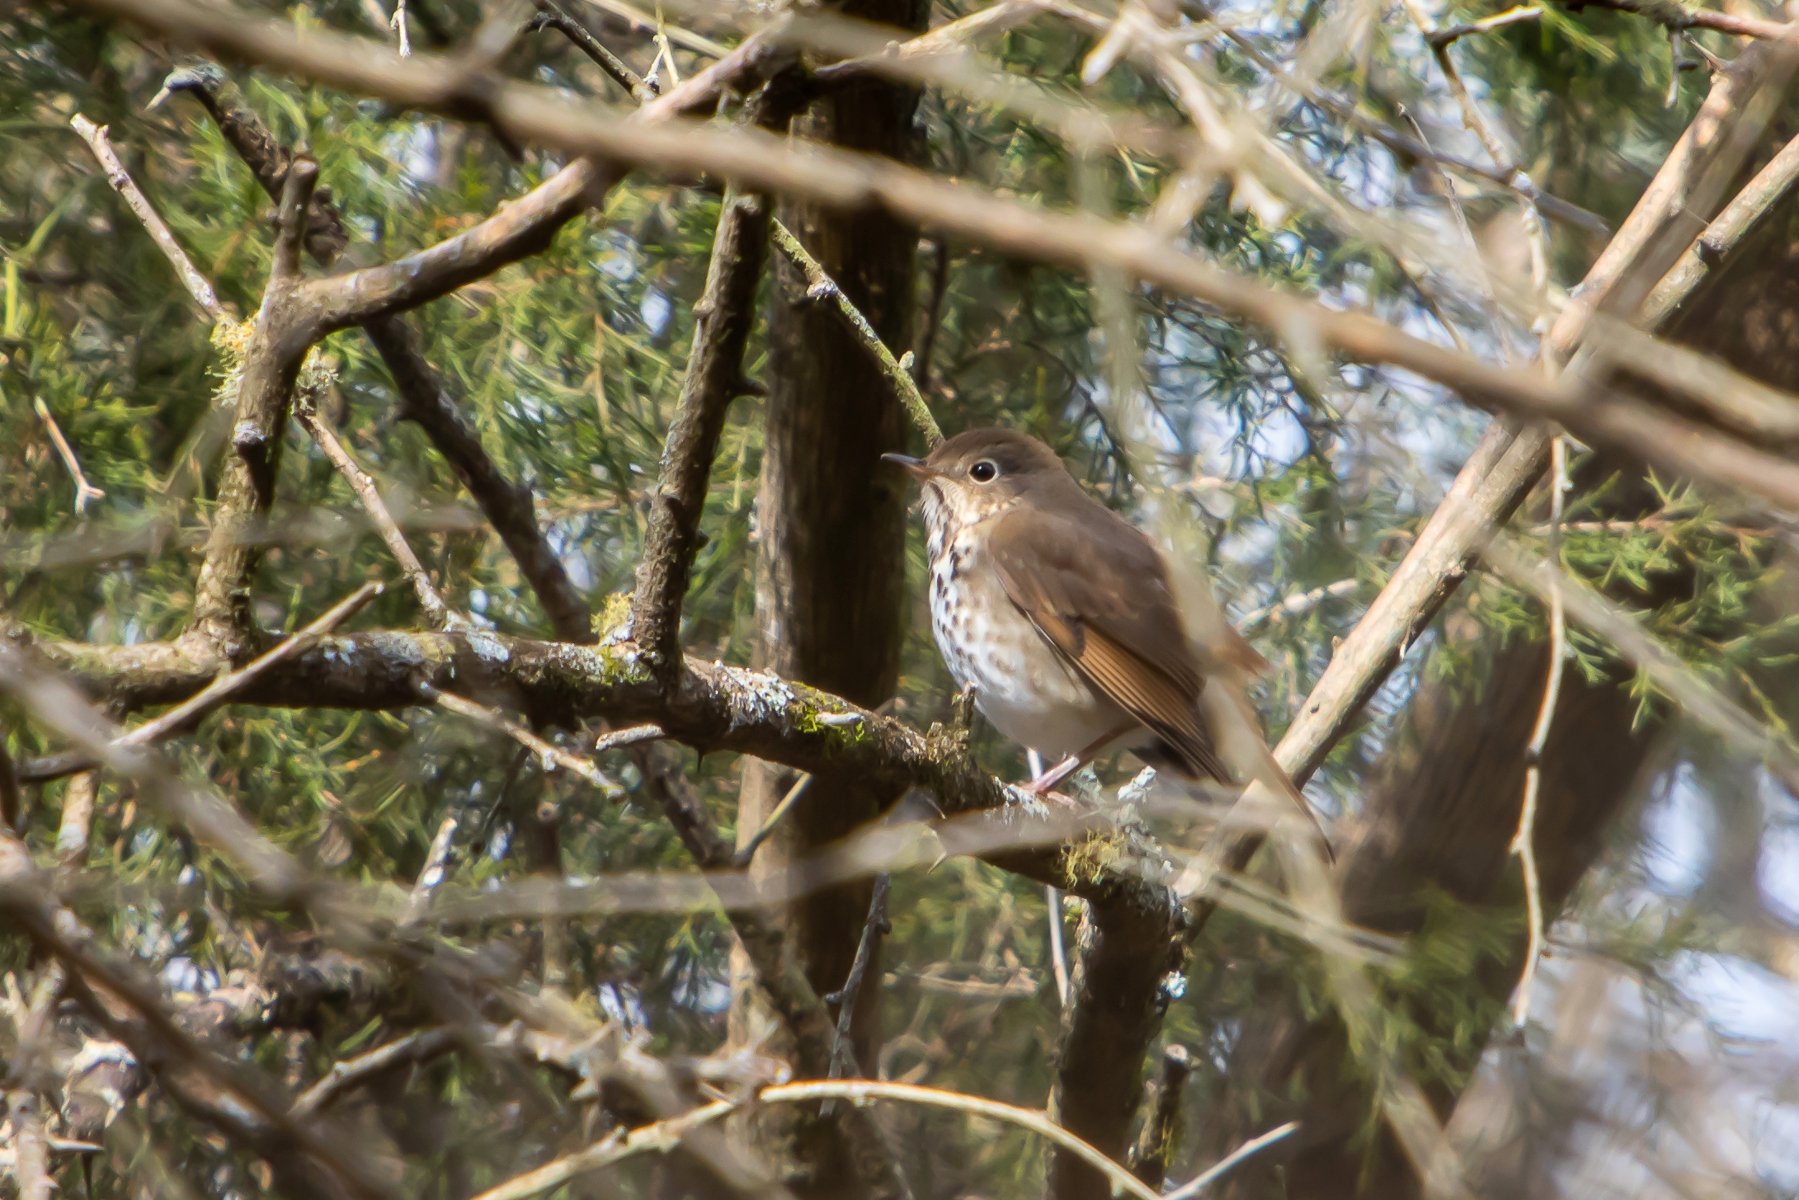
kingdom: Animalia
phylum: Chordata
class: Aves
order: Passeriformes
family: Turdidae
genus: Catharus
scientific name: Catharus guttatus
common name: Hermit thrush
